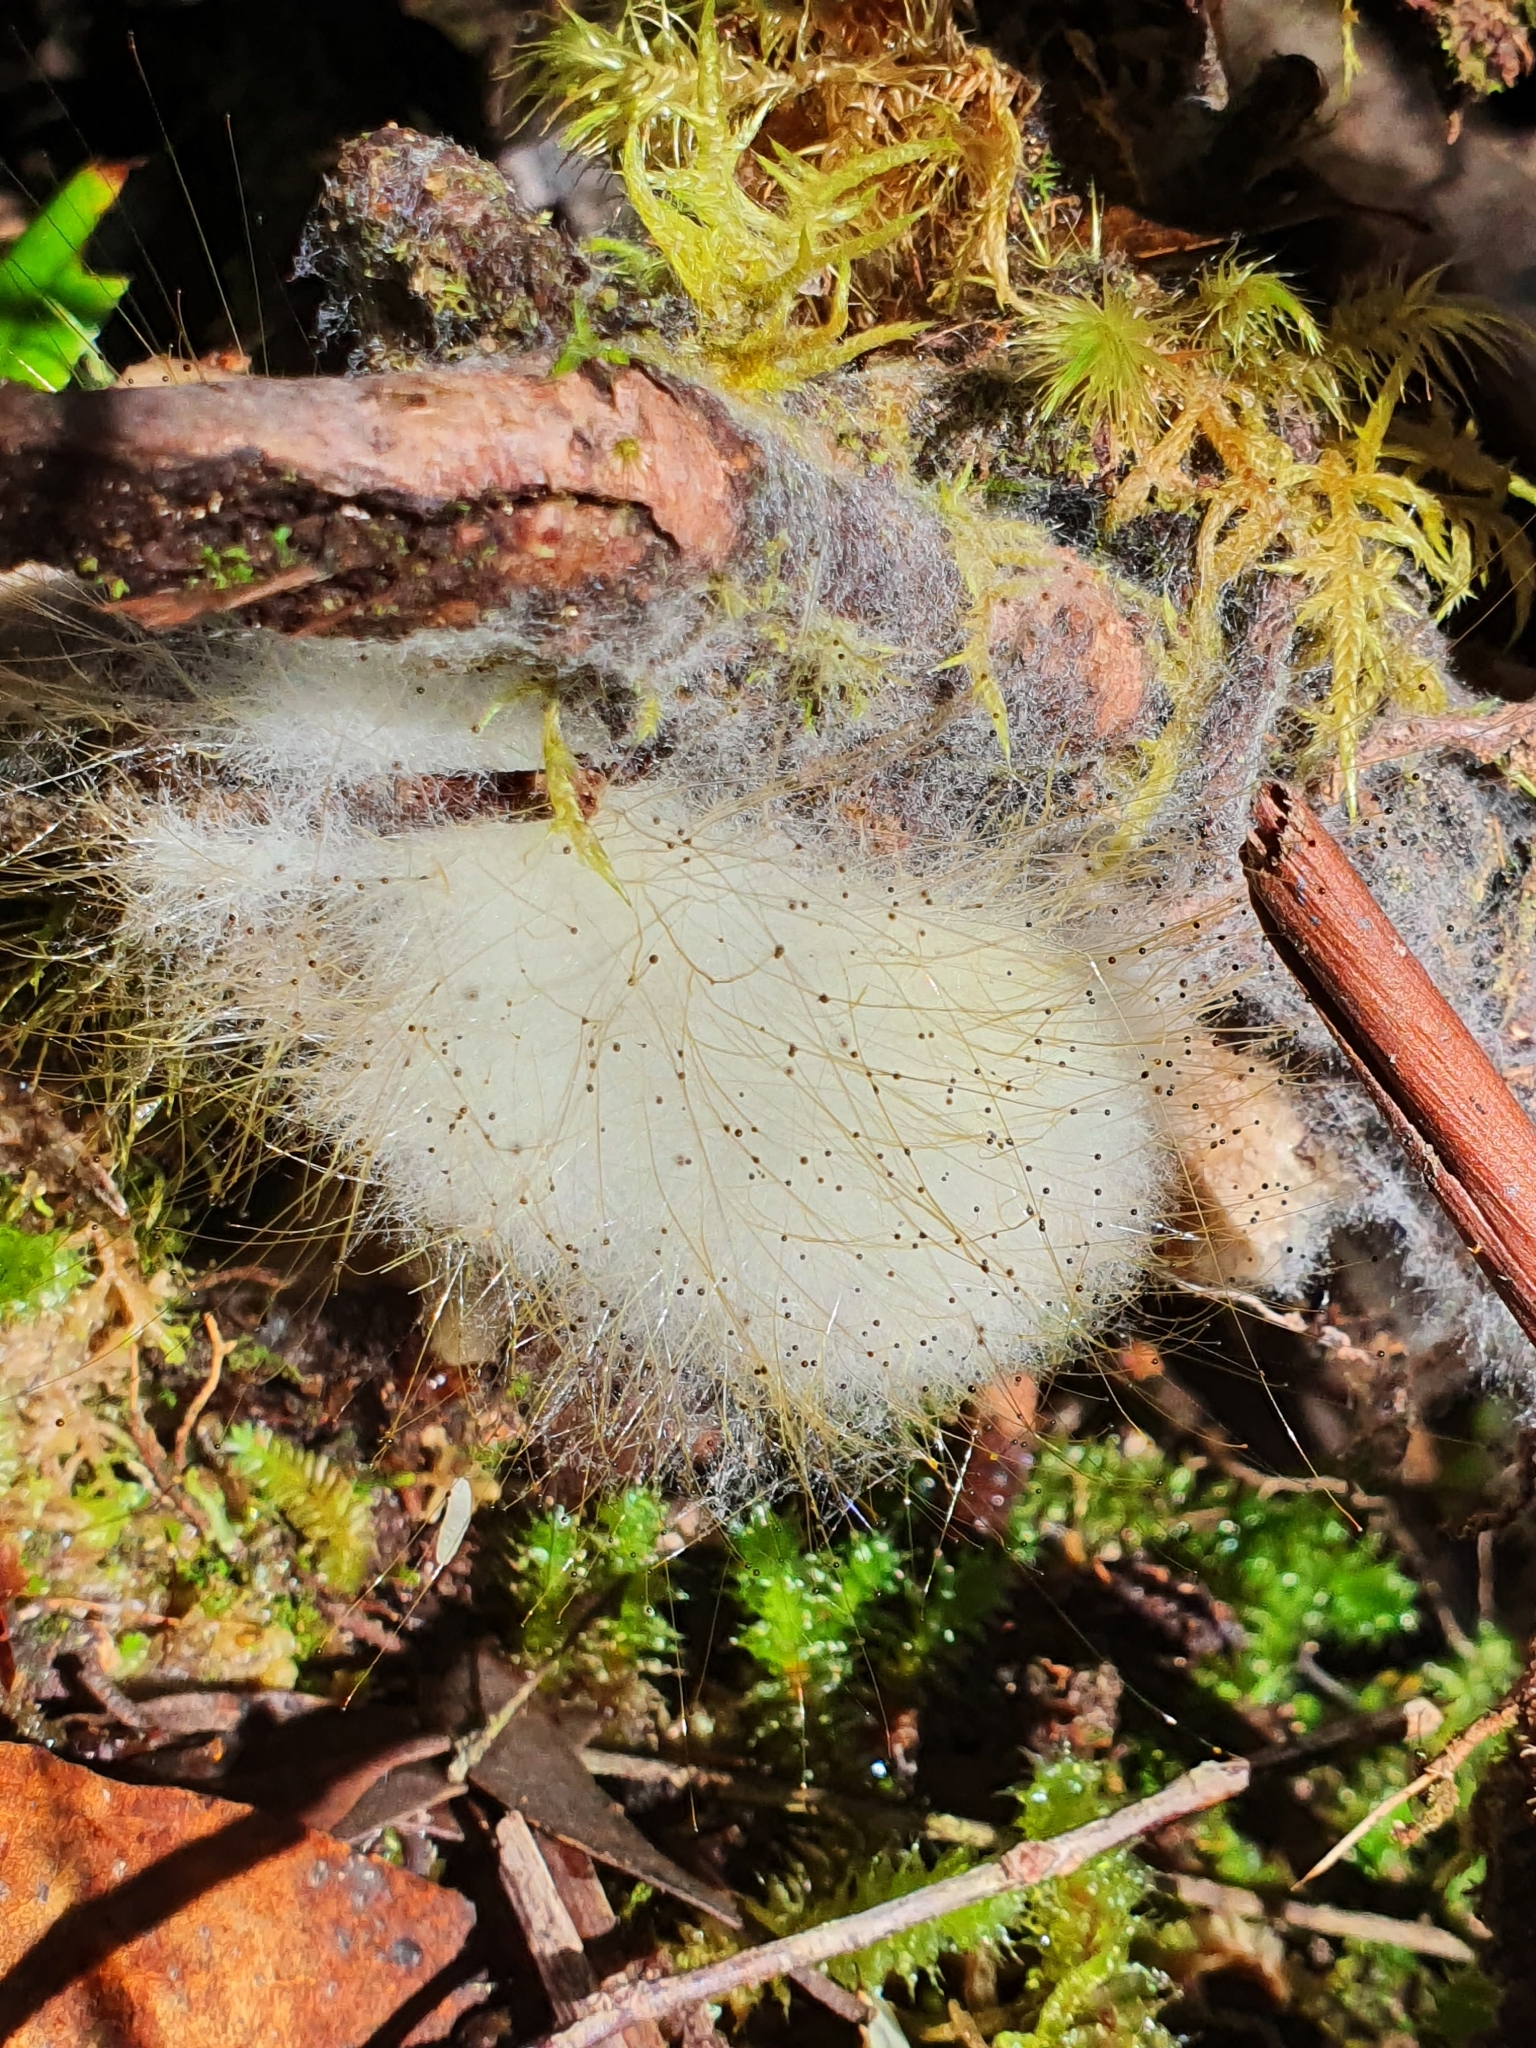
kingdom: Fungi
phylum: Mucoromycota
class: Mucoromycetes
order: Mucorales
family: Phycomycetaceae
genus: Spinellus
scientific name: Spinellus fusiger
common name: Bonnet mould
